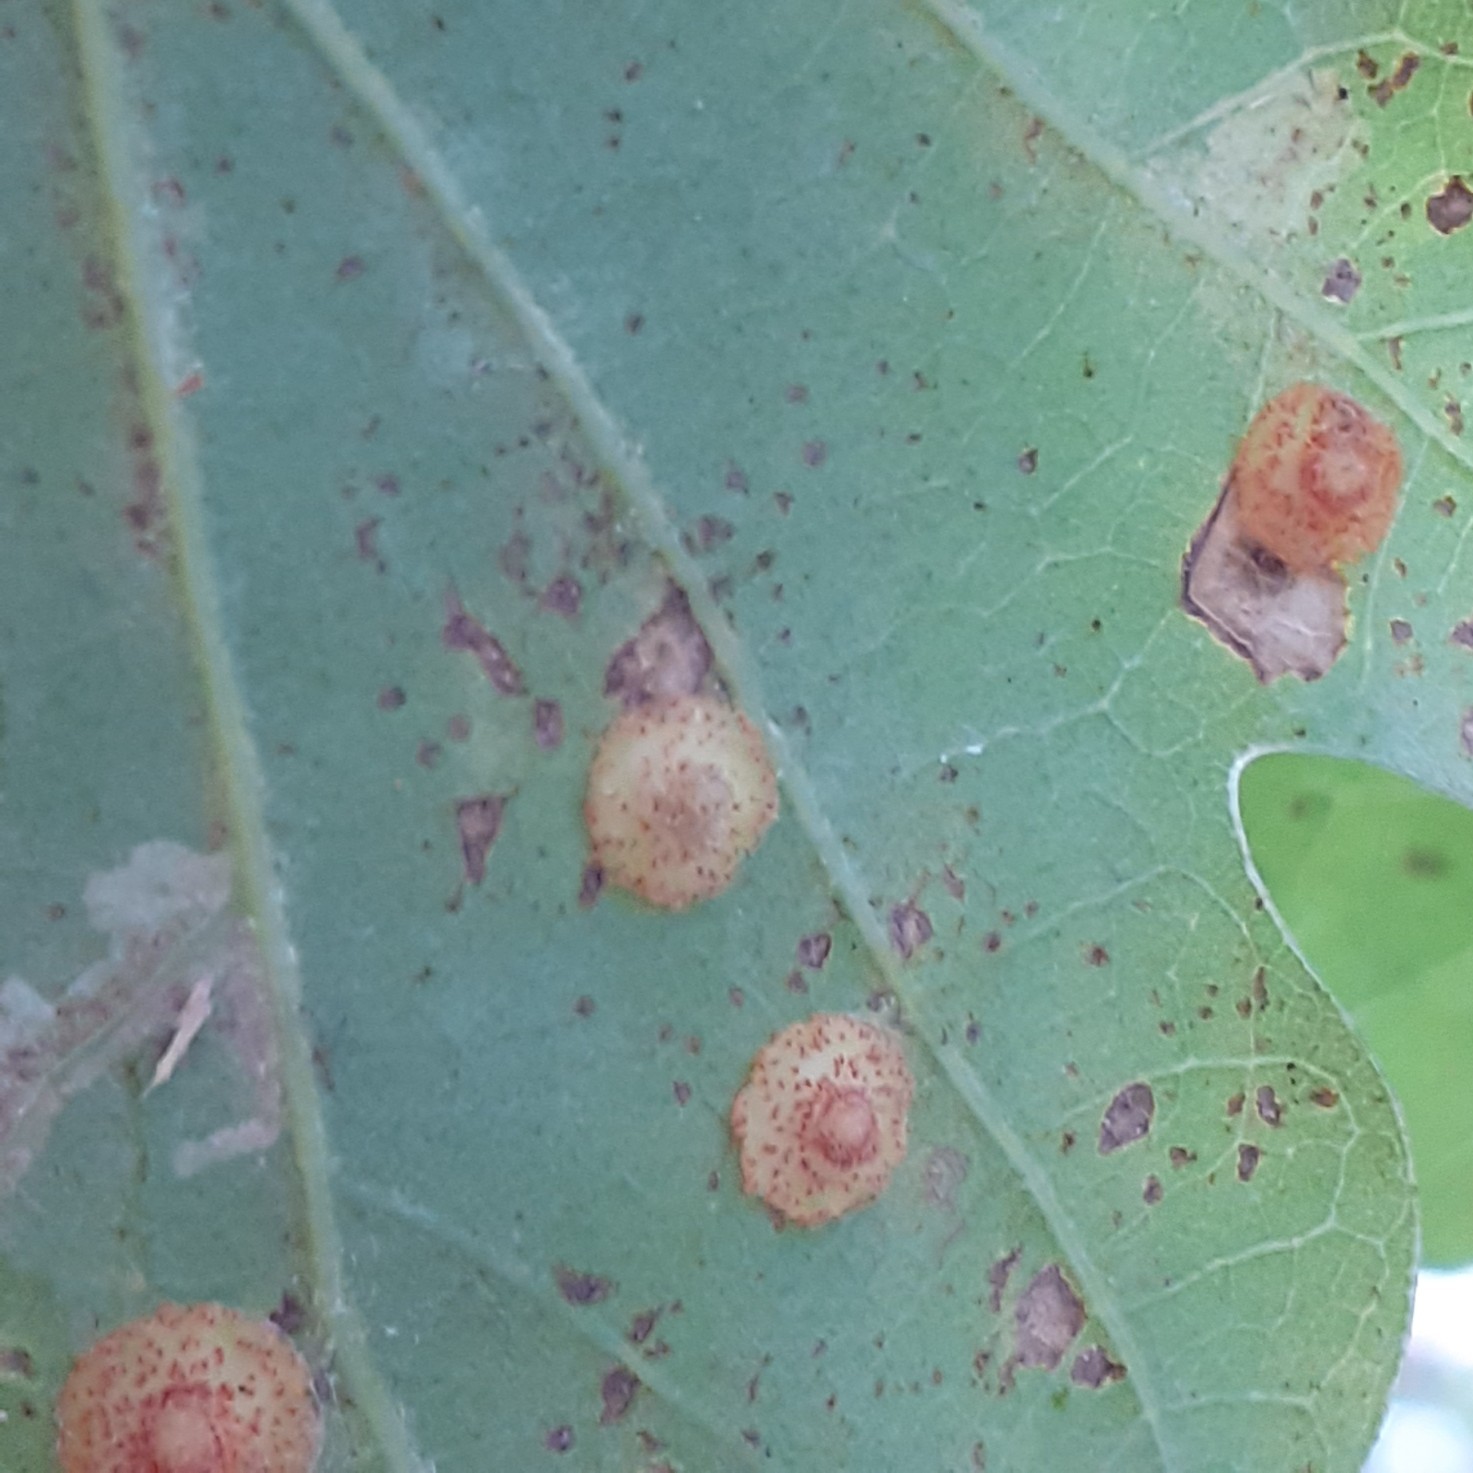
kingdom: Animalia
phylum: Arthropoda
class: Insecta
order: Hymenoptera
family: Cynipidae
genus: Neuroterus
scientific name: Neuroterus quercusbaccarum
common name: Common spangle gall
